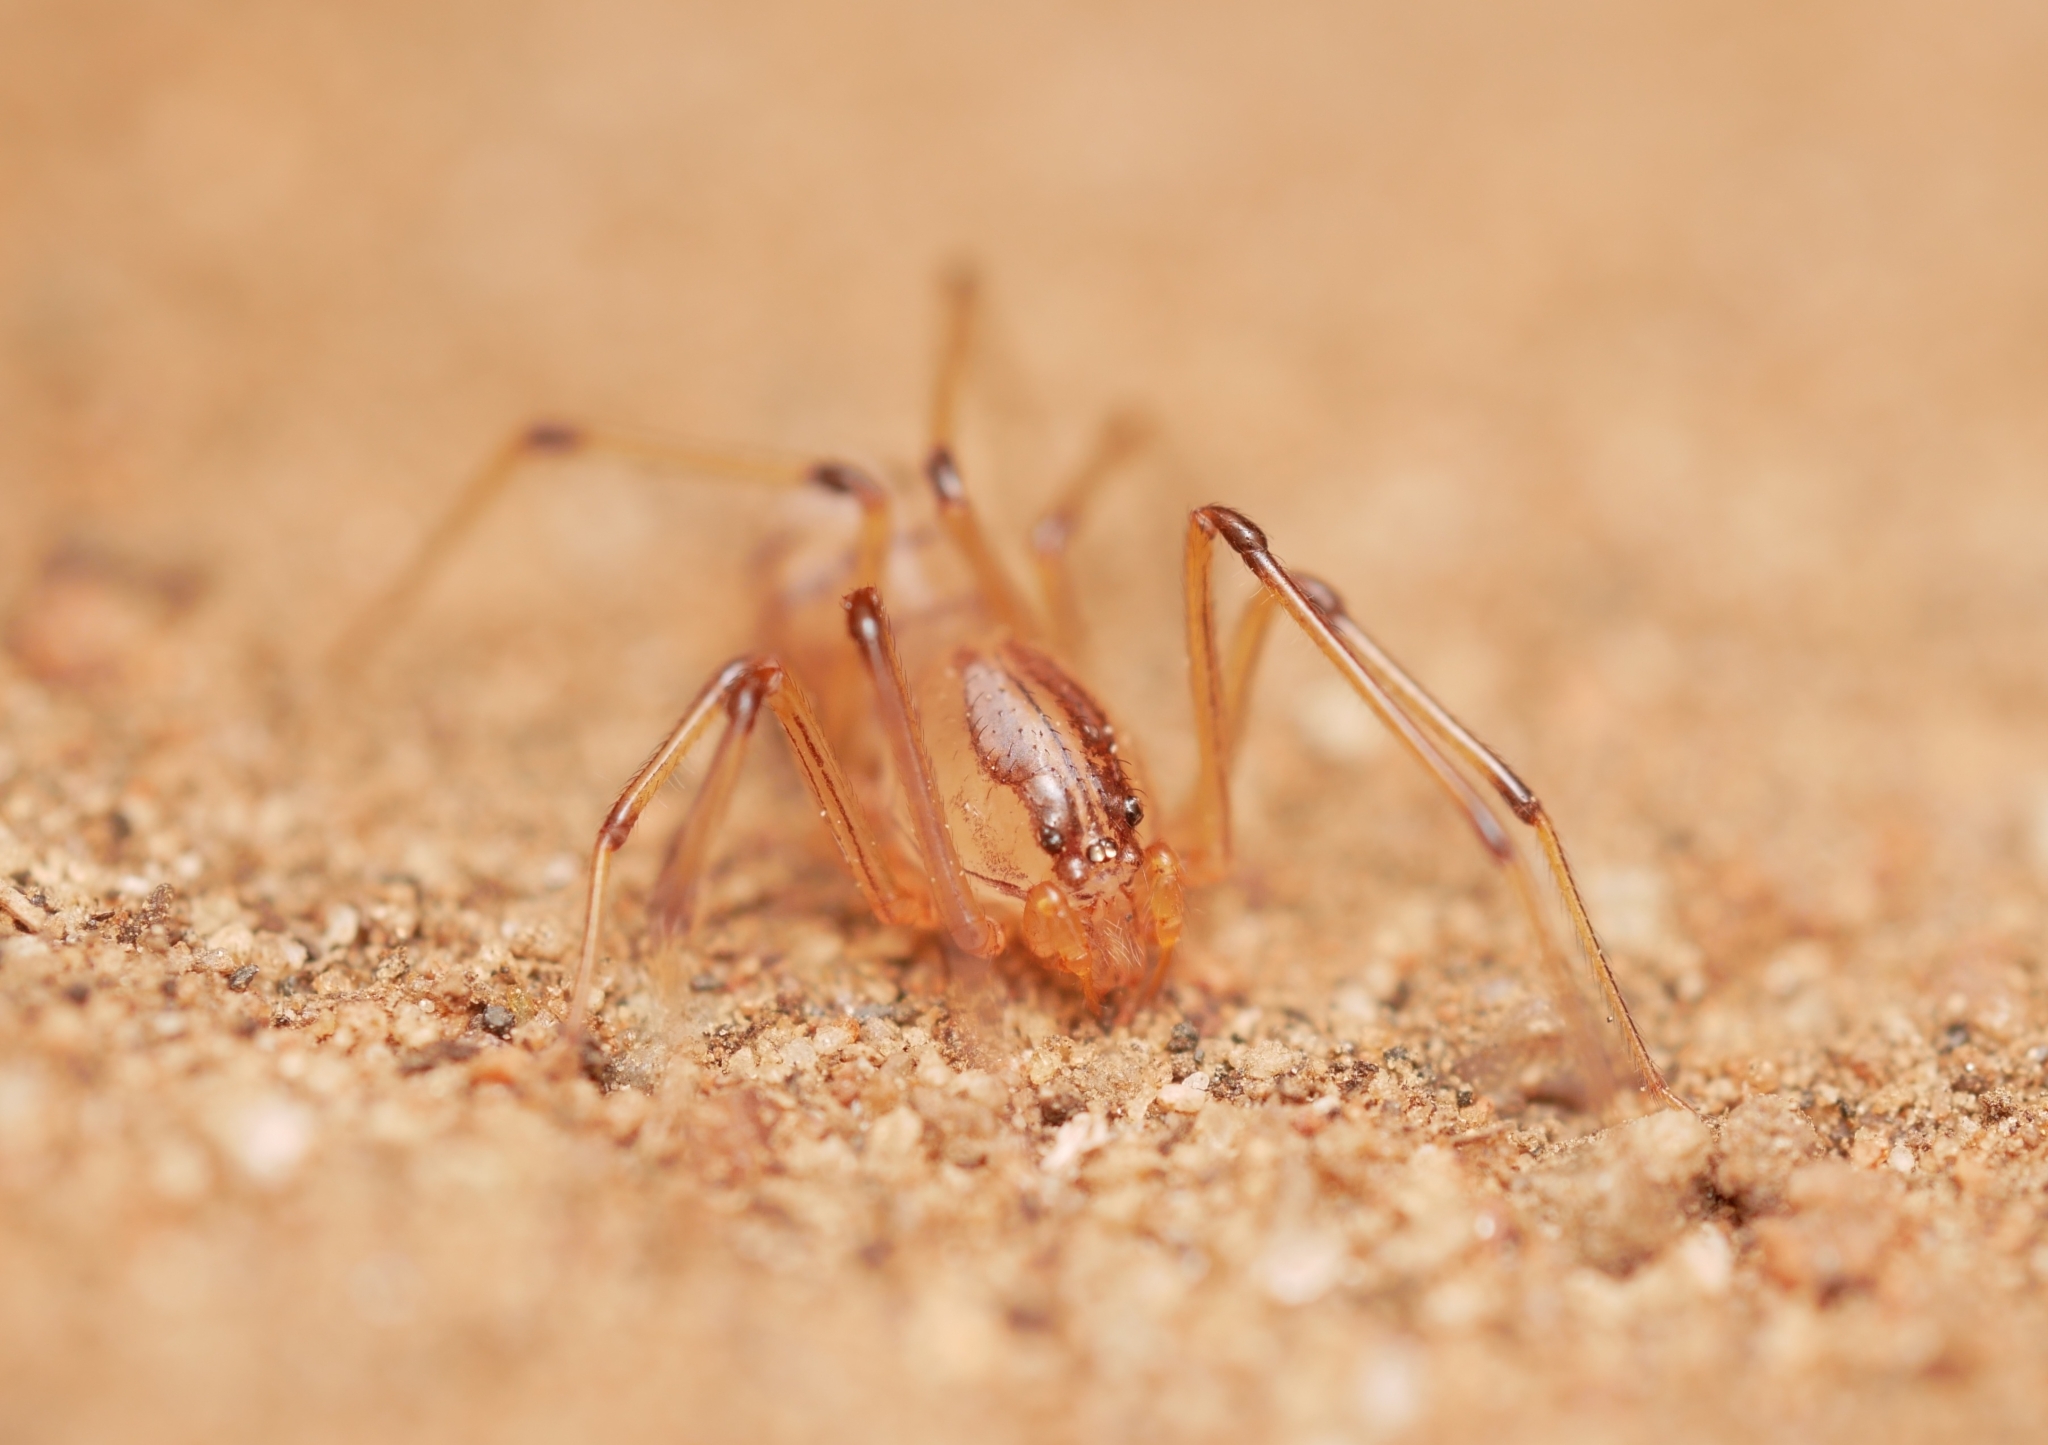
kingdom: Animalia
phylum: Arthropoda
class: Arachnida
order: Araneae
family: Scytodidae
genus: Dictis
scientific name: Dictis striatipes
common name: Spider
